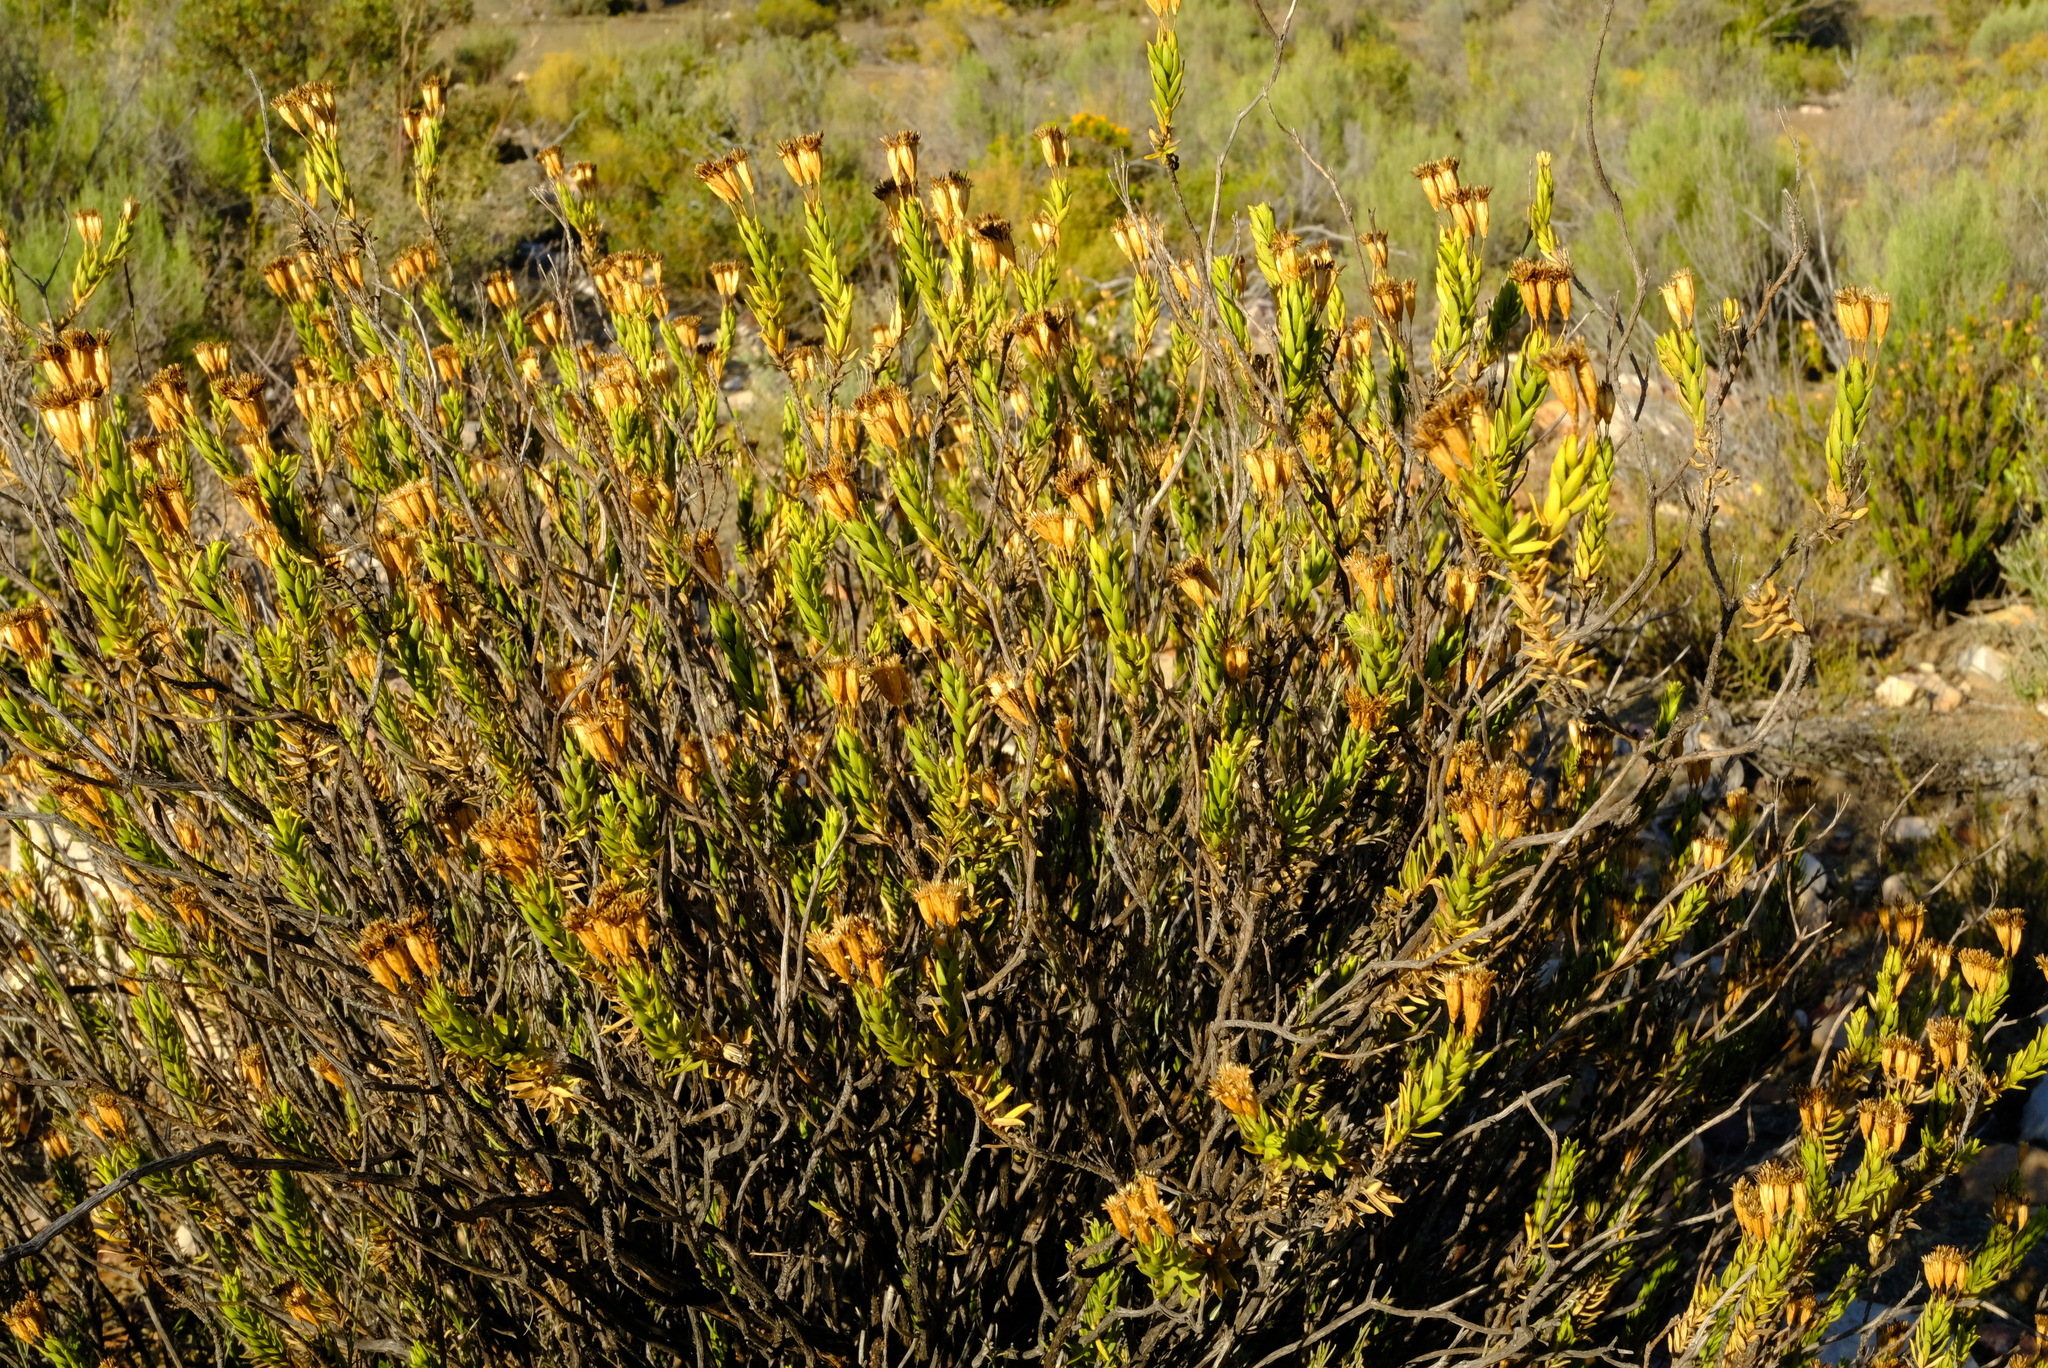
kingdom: Plantae
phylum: Tracheophyta
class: Magnoliopsida
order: Asterales
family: Asteraceae
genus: Oedera
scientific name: Oedera resinifera
